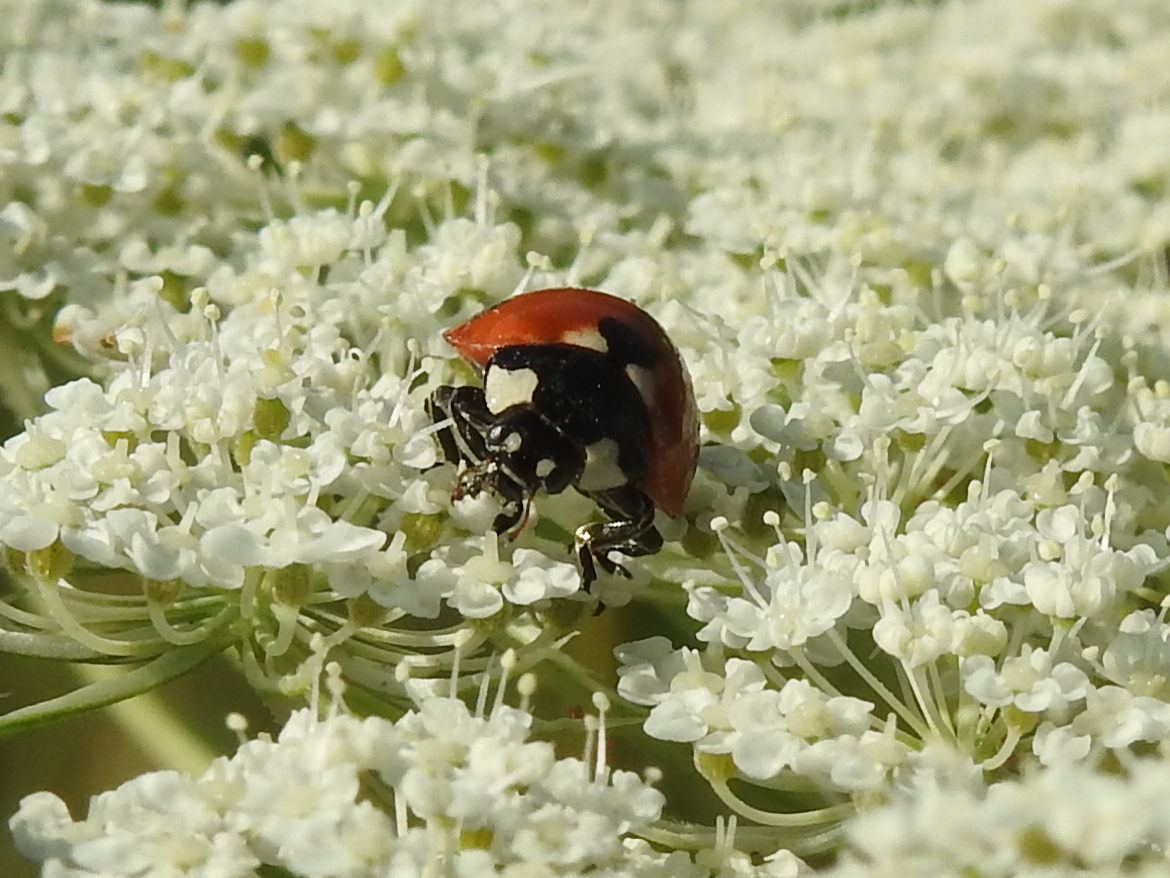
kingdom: Animalia
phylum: Arthropoda
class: Insecta
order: Coleoptera
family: Coccinellidae
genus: Coccinella
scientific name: Coccinella septempunctata
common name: Sevenspotted lady beetle
